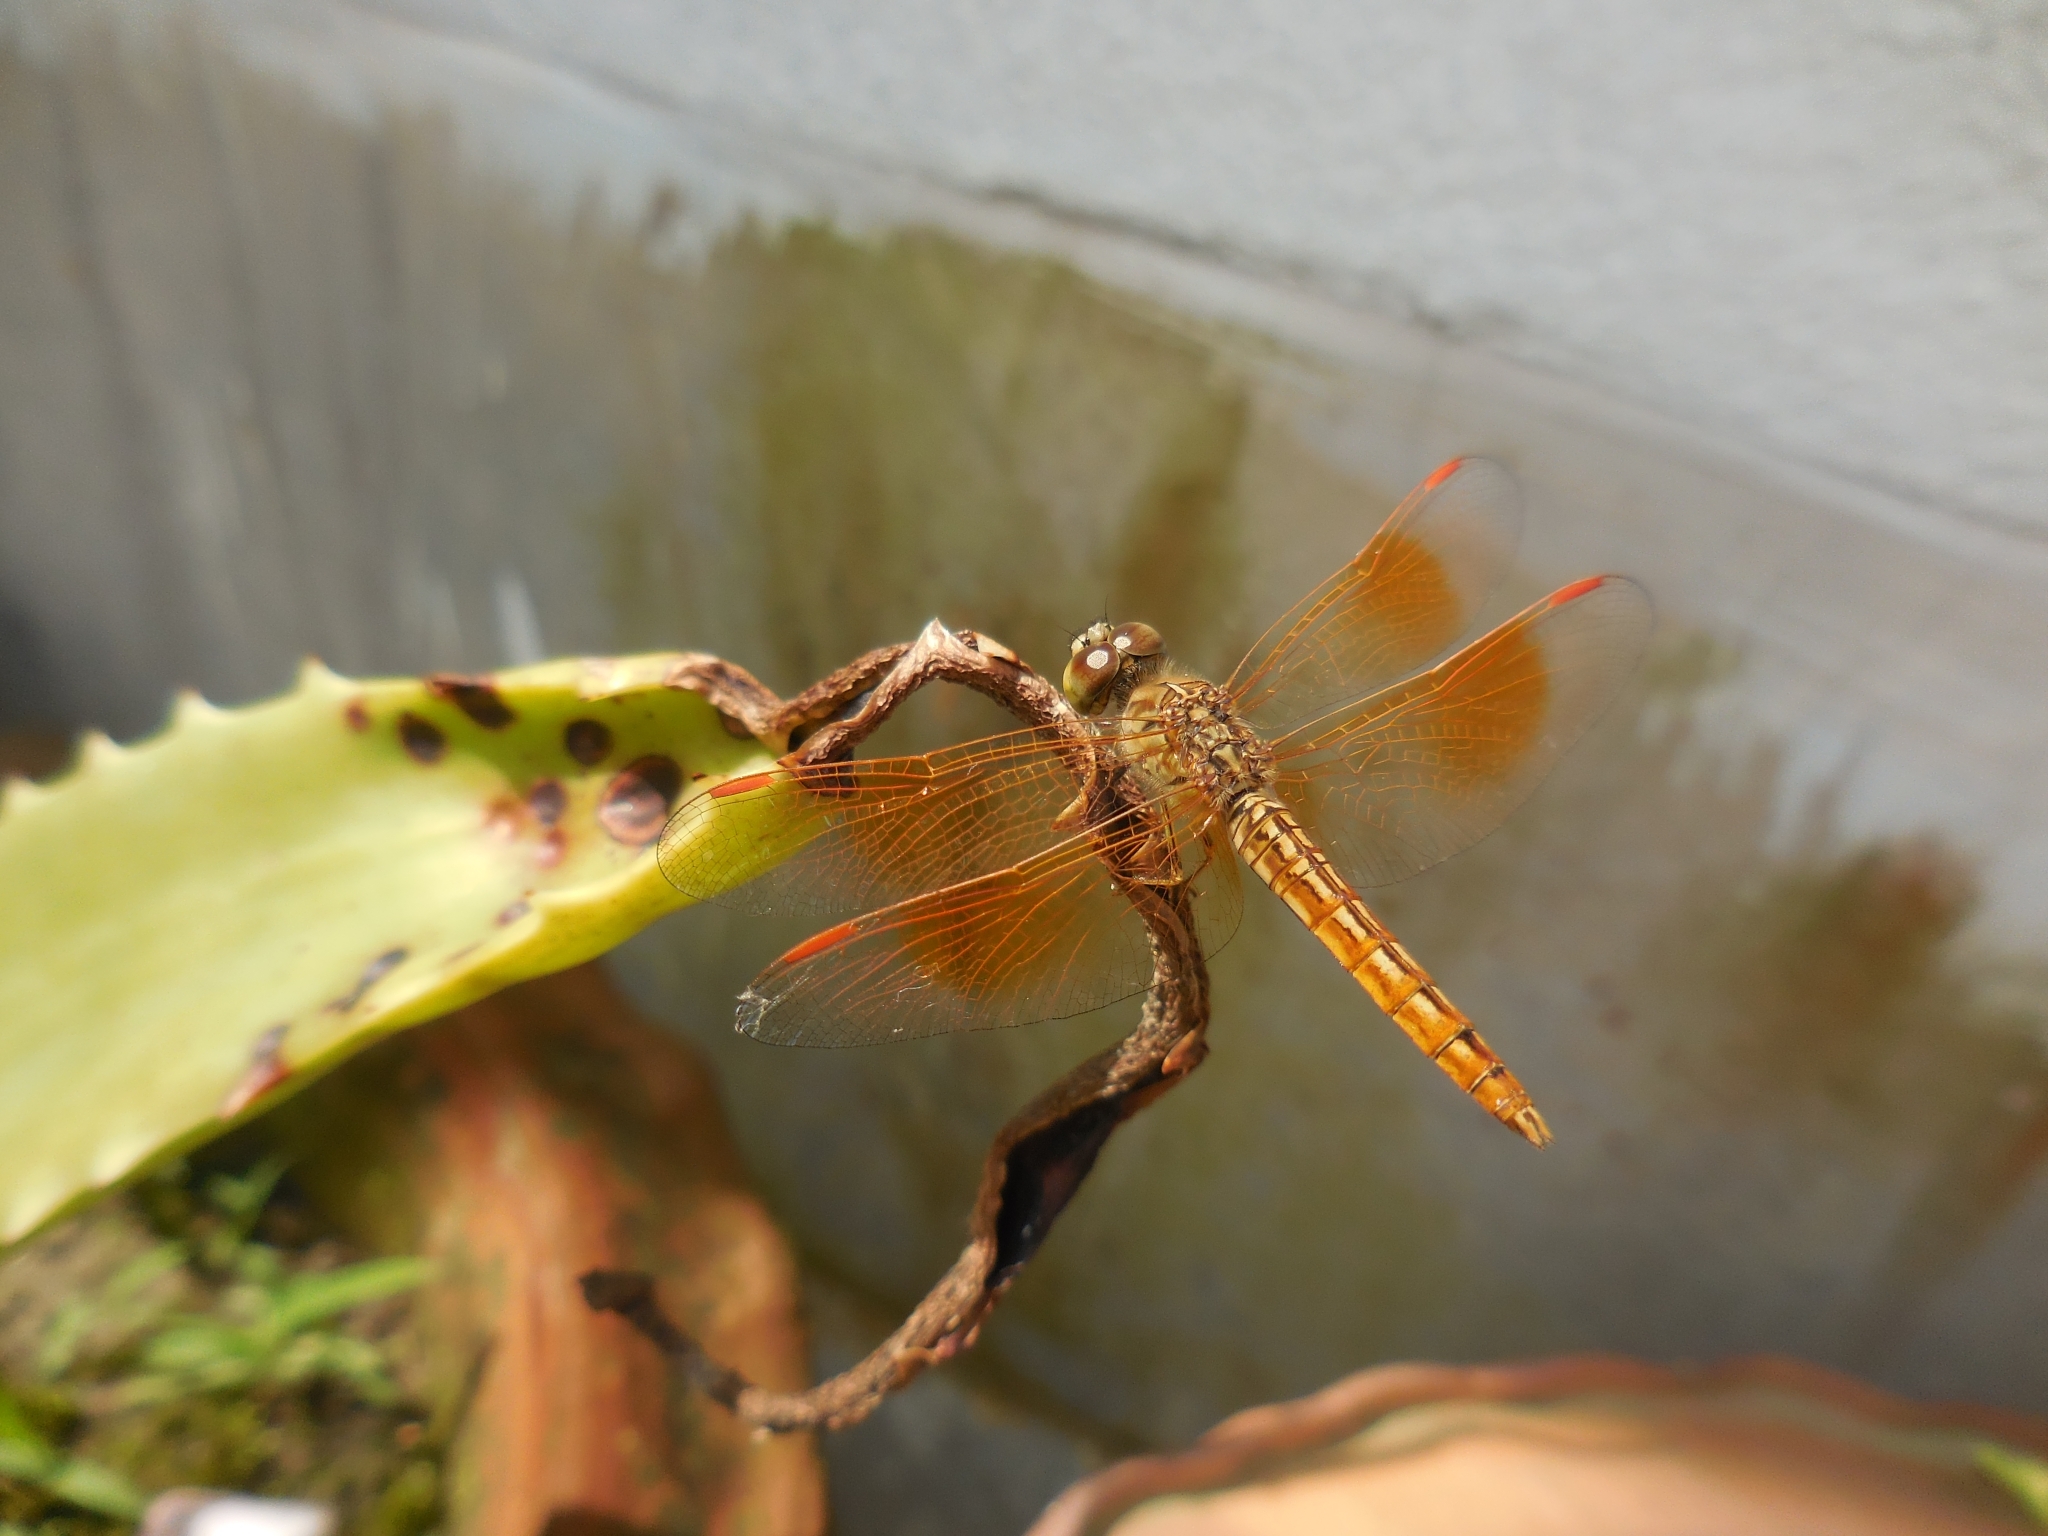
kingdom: Animalia
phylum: Arthropoda
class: Insecta
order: Odonata
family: Libellulidae
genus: Brachythemis
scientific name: Brachythemis contaminata
